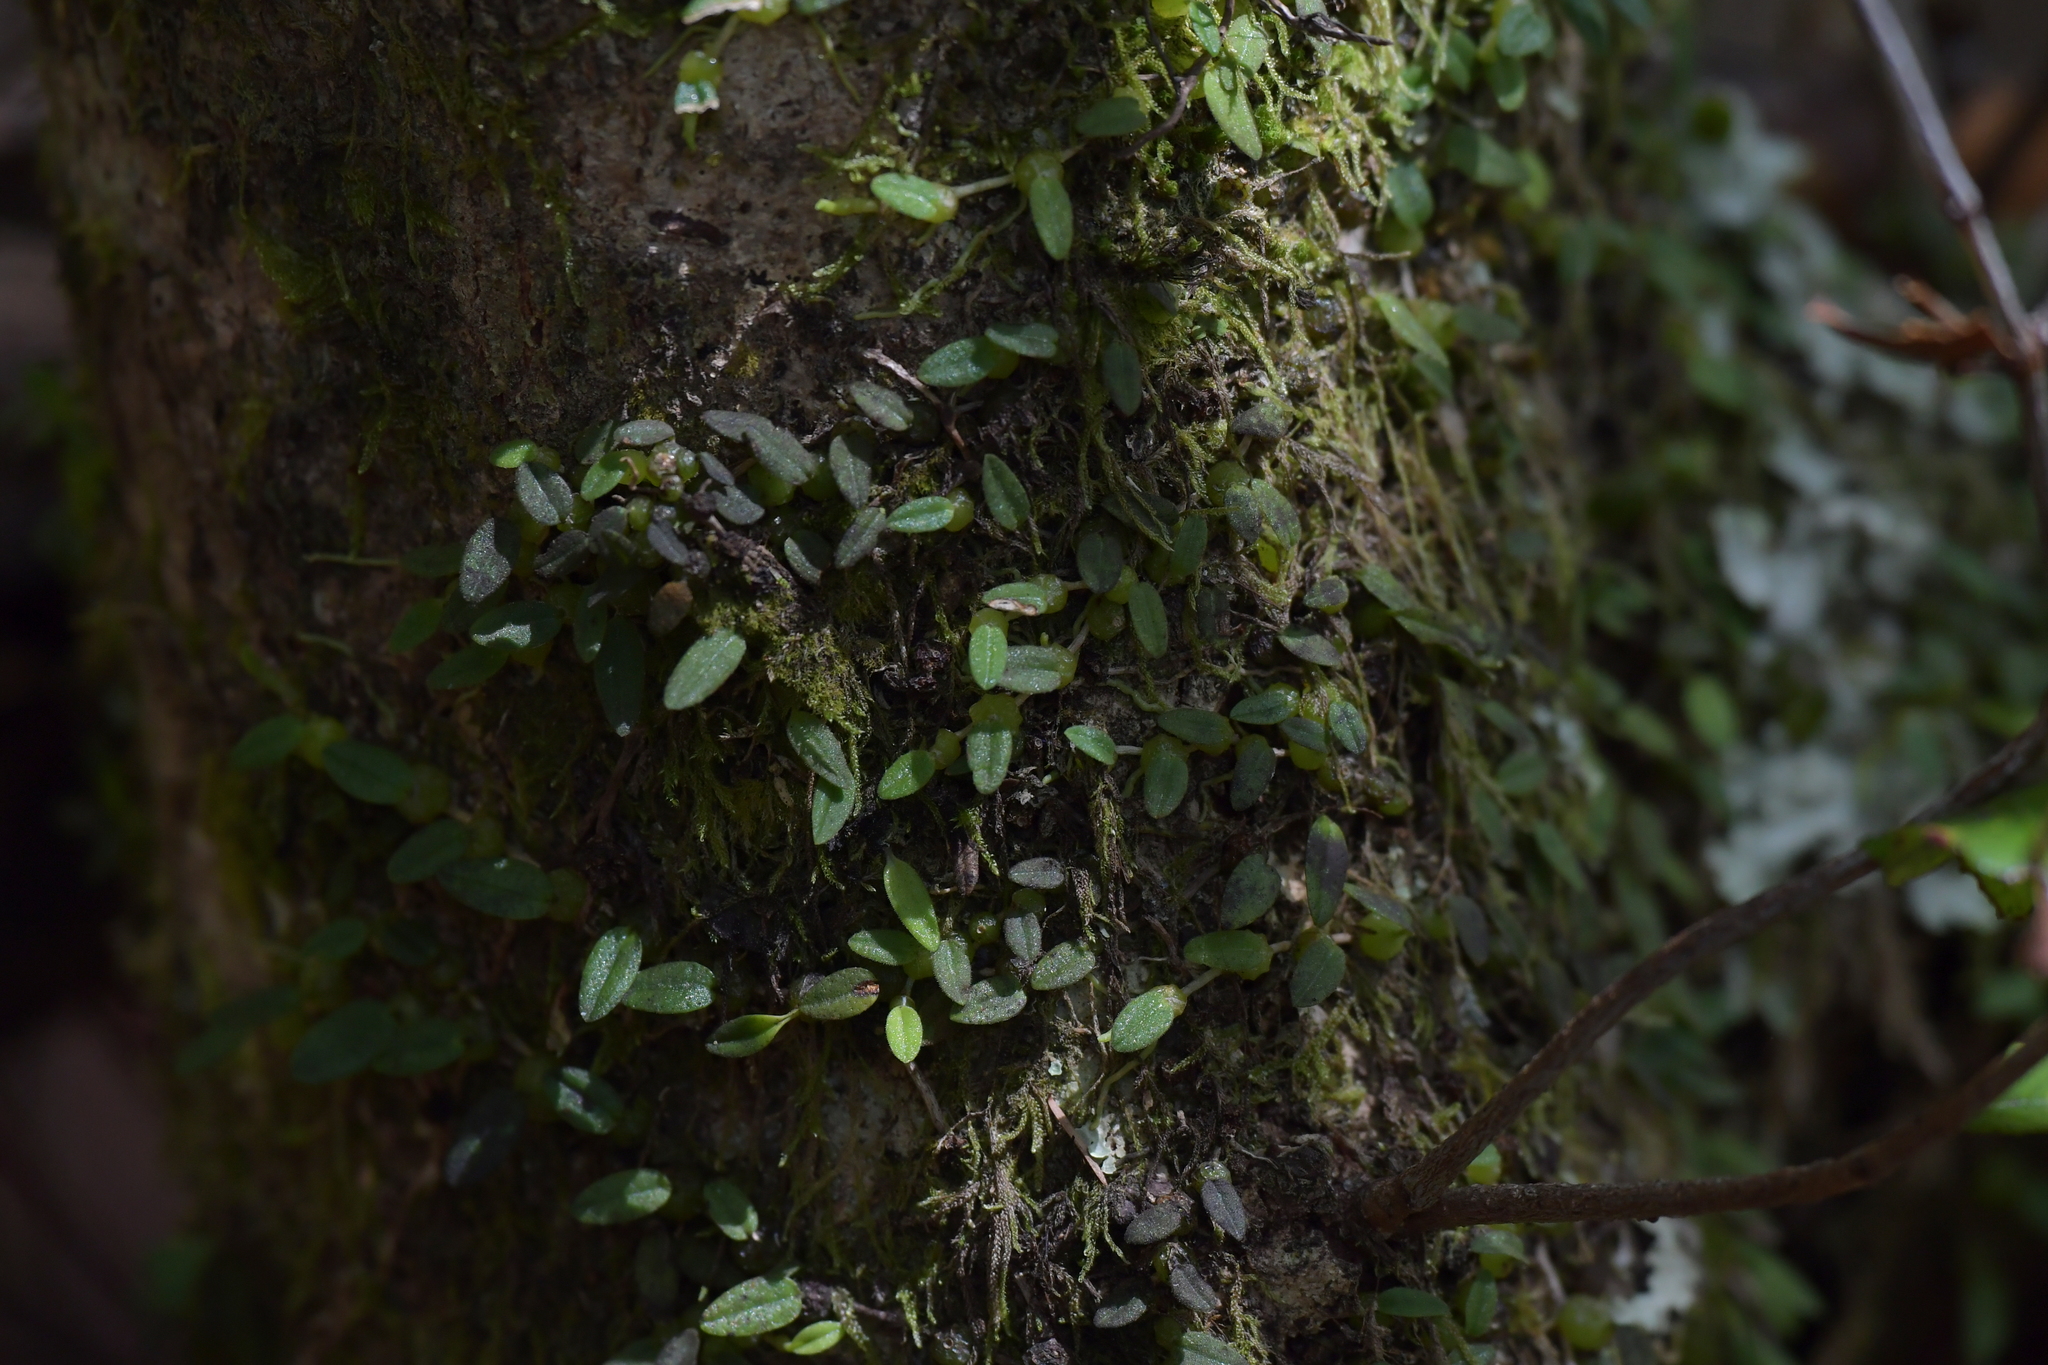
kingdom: Plantae
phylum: Tracheophyta
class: Liliopsida
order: Asparagales
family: Orchidaceae
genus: Bulbophyllum
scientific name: Bulbophyllum pygmaeum
